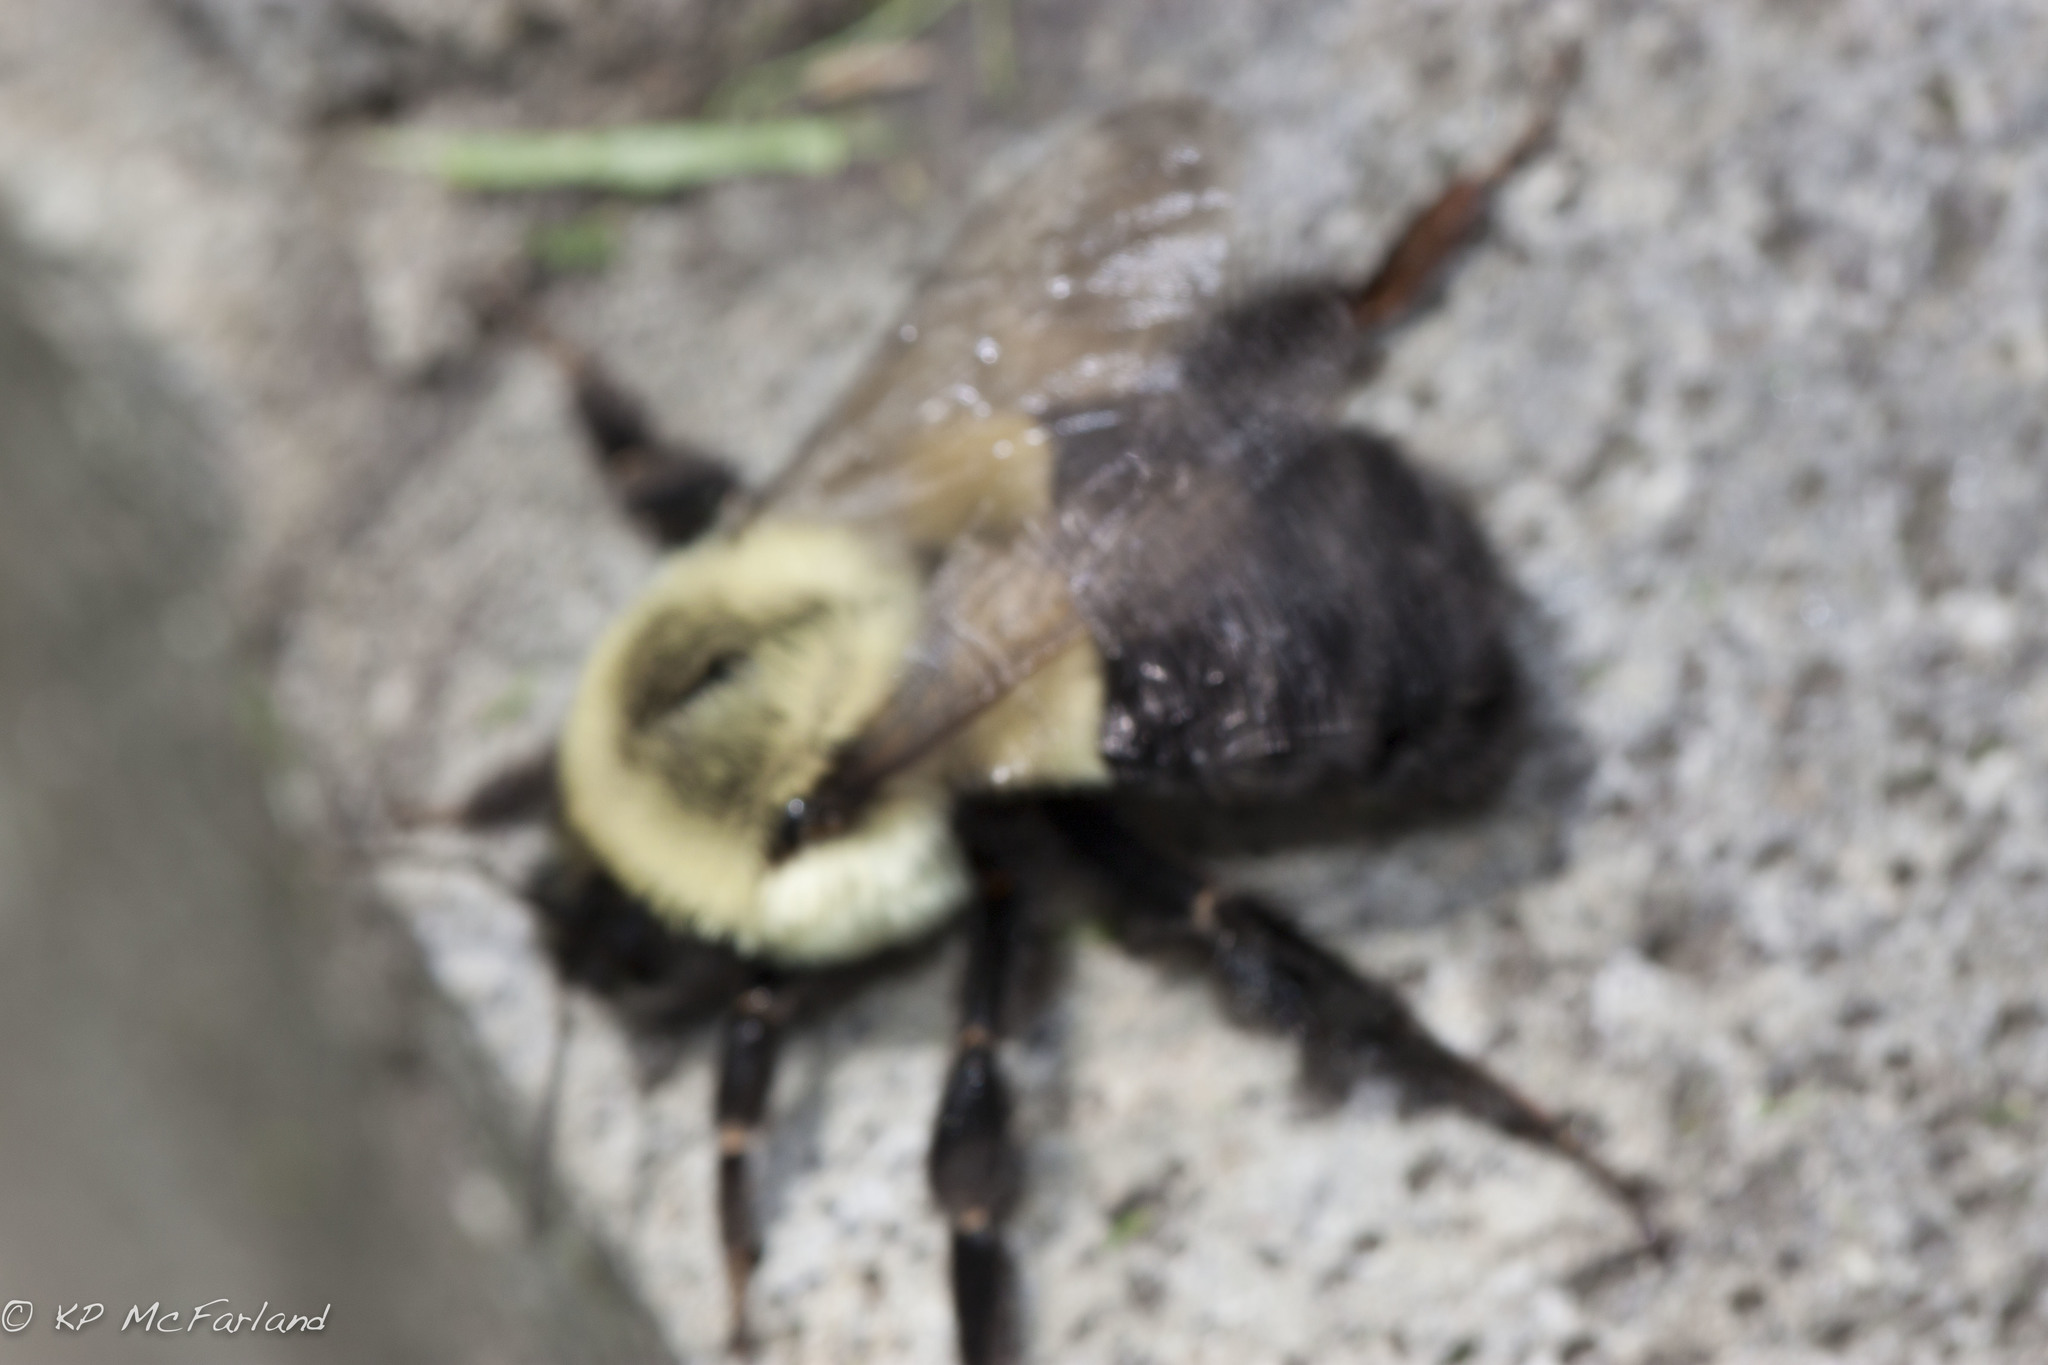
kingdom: Animalia
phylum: Arthropoda
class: Insecta
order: Hymenoptera
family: Apidae
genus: Bombus
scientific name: Bombus impatiens
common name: Common eastern bumble bee
